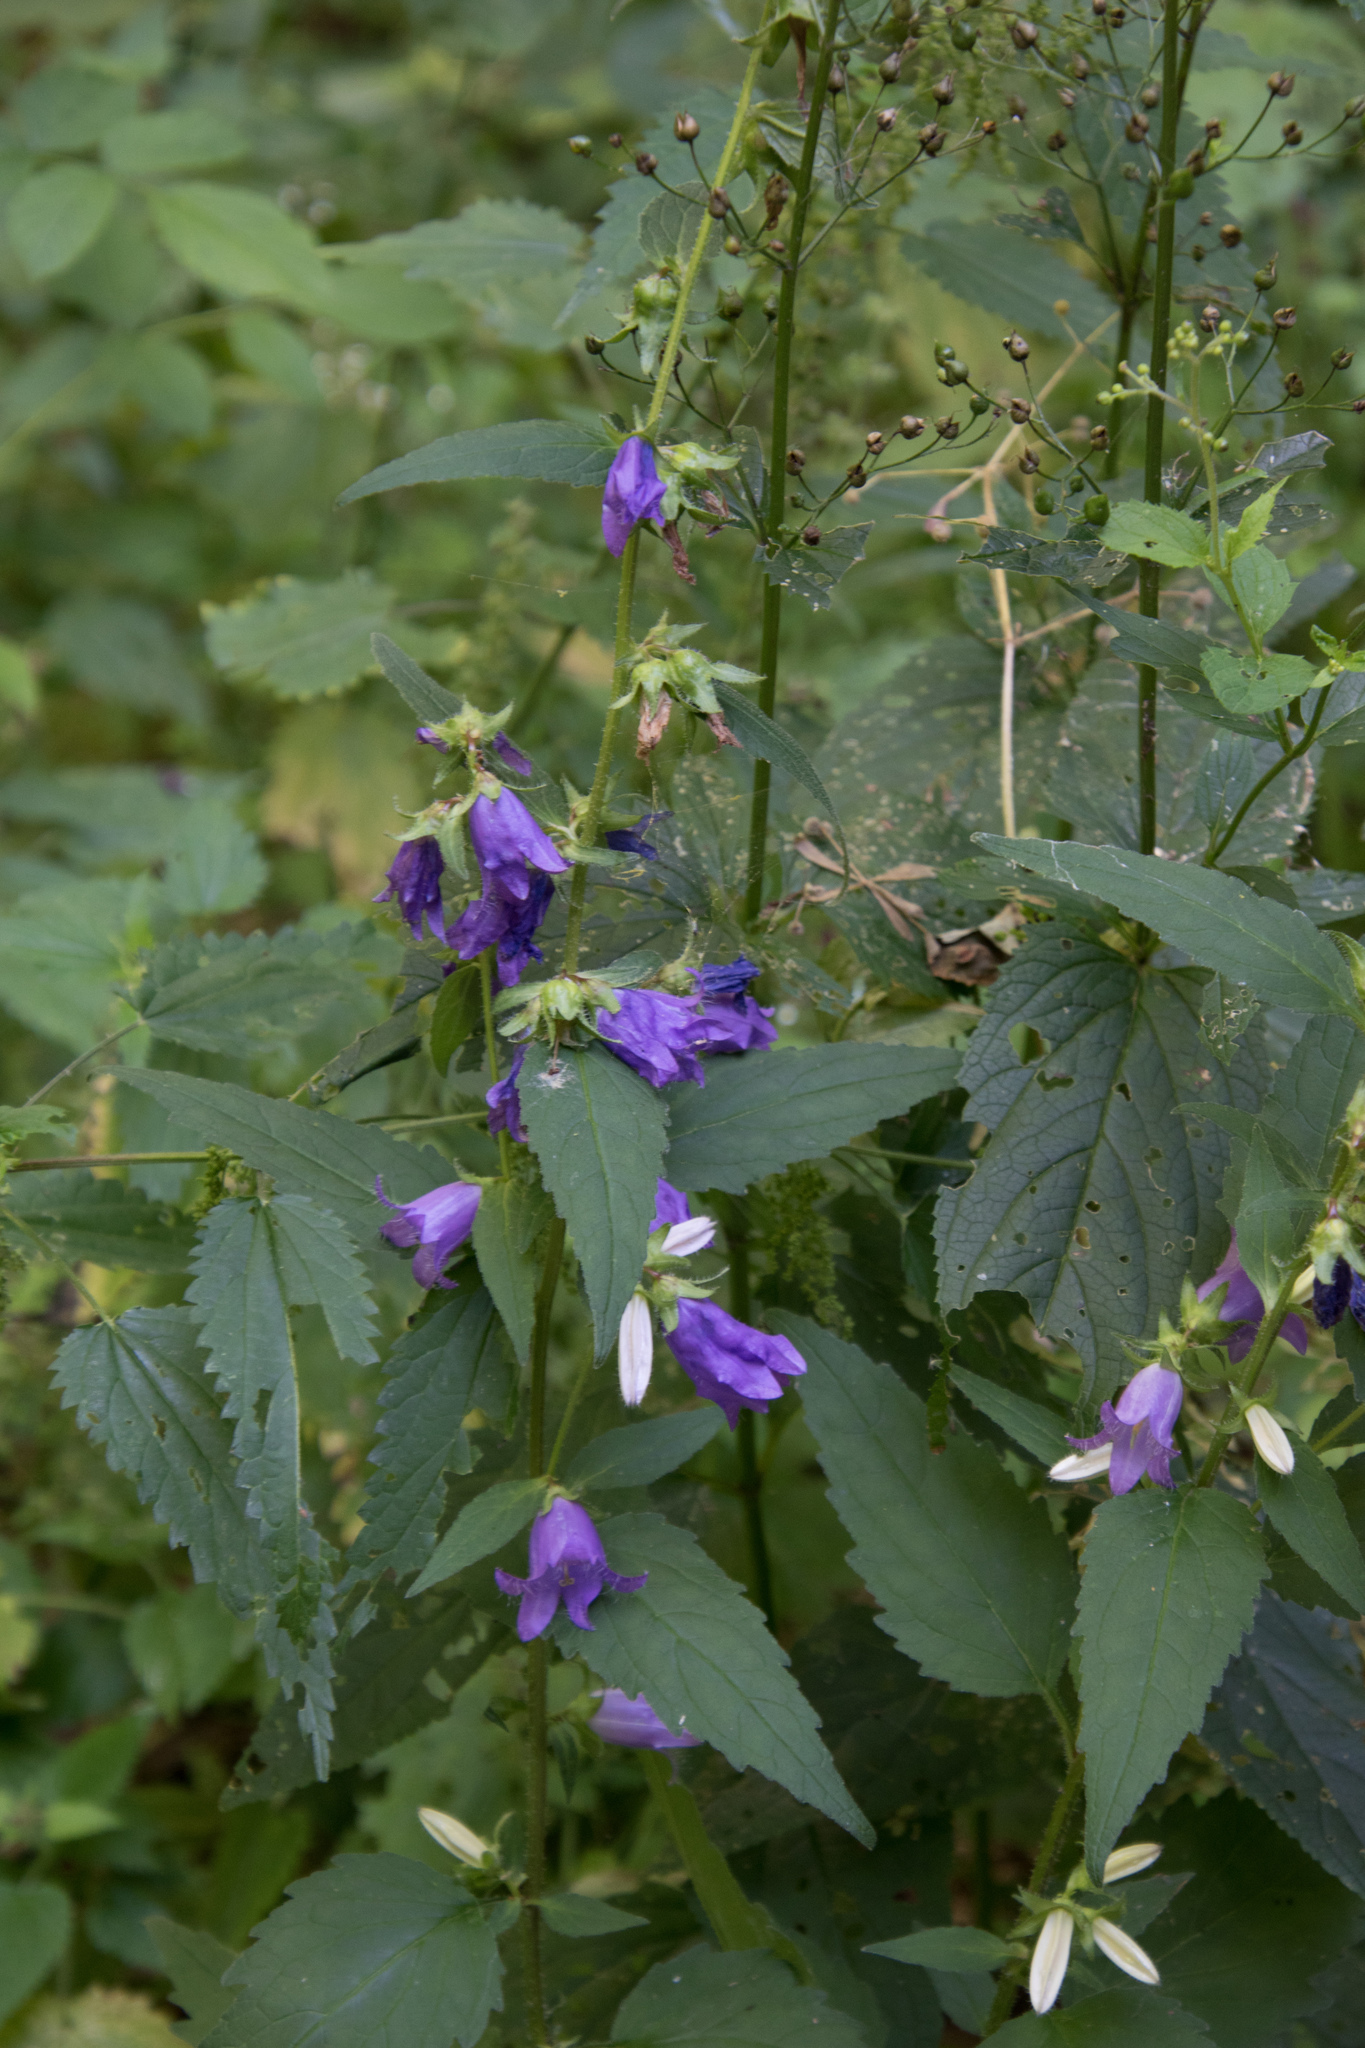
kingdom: Plantae
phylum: Tracheophyta
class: Magnoliopsida
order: Asterales
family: Campanulaceae
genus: Campanula
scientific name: Campanula trachelium
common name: Nettle-leaved bellflower
